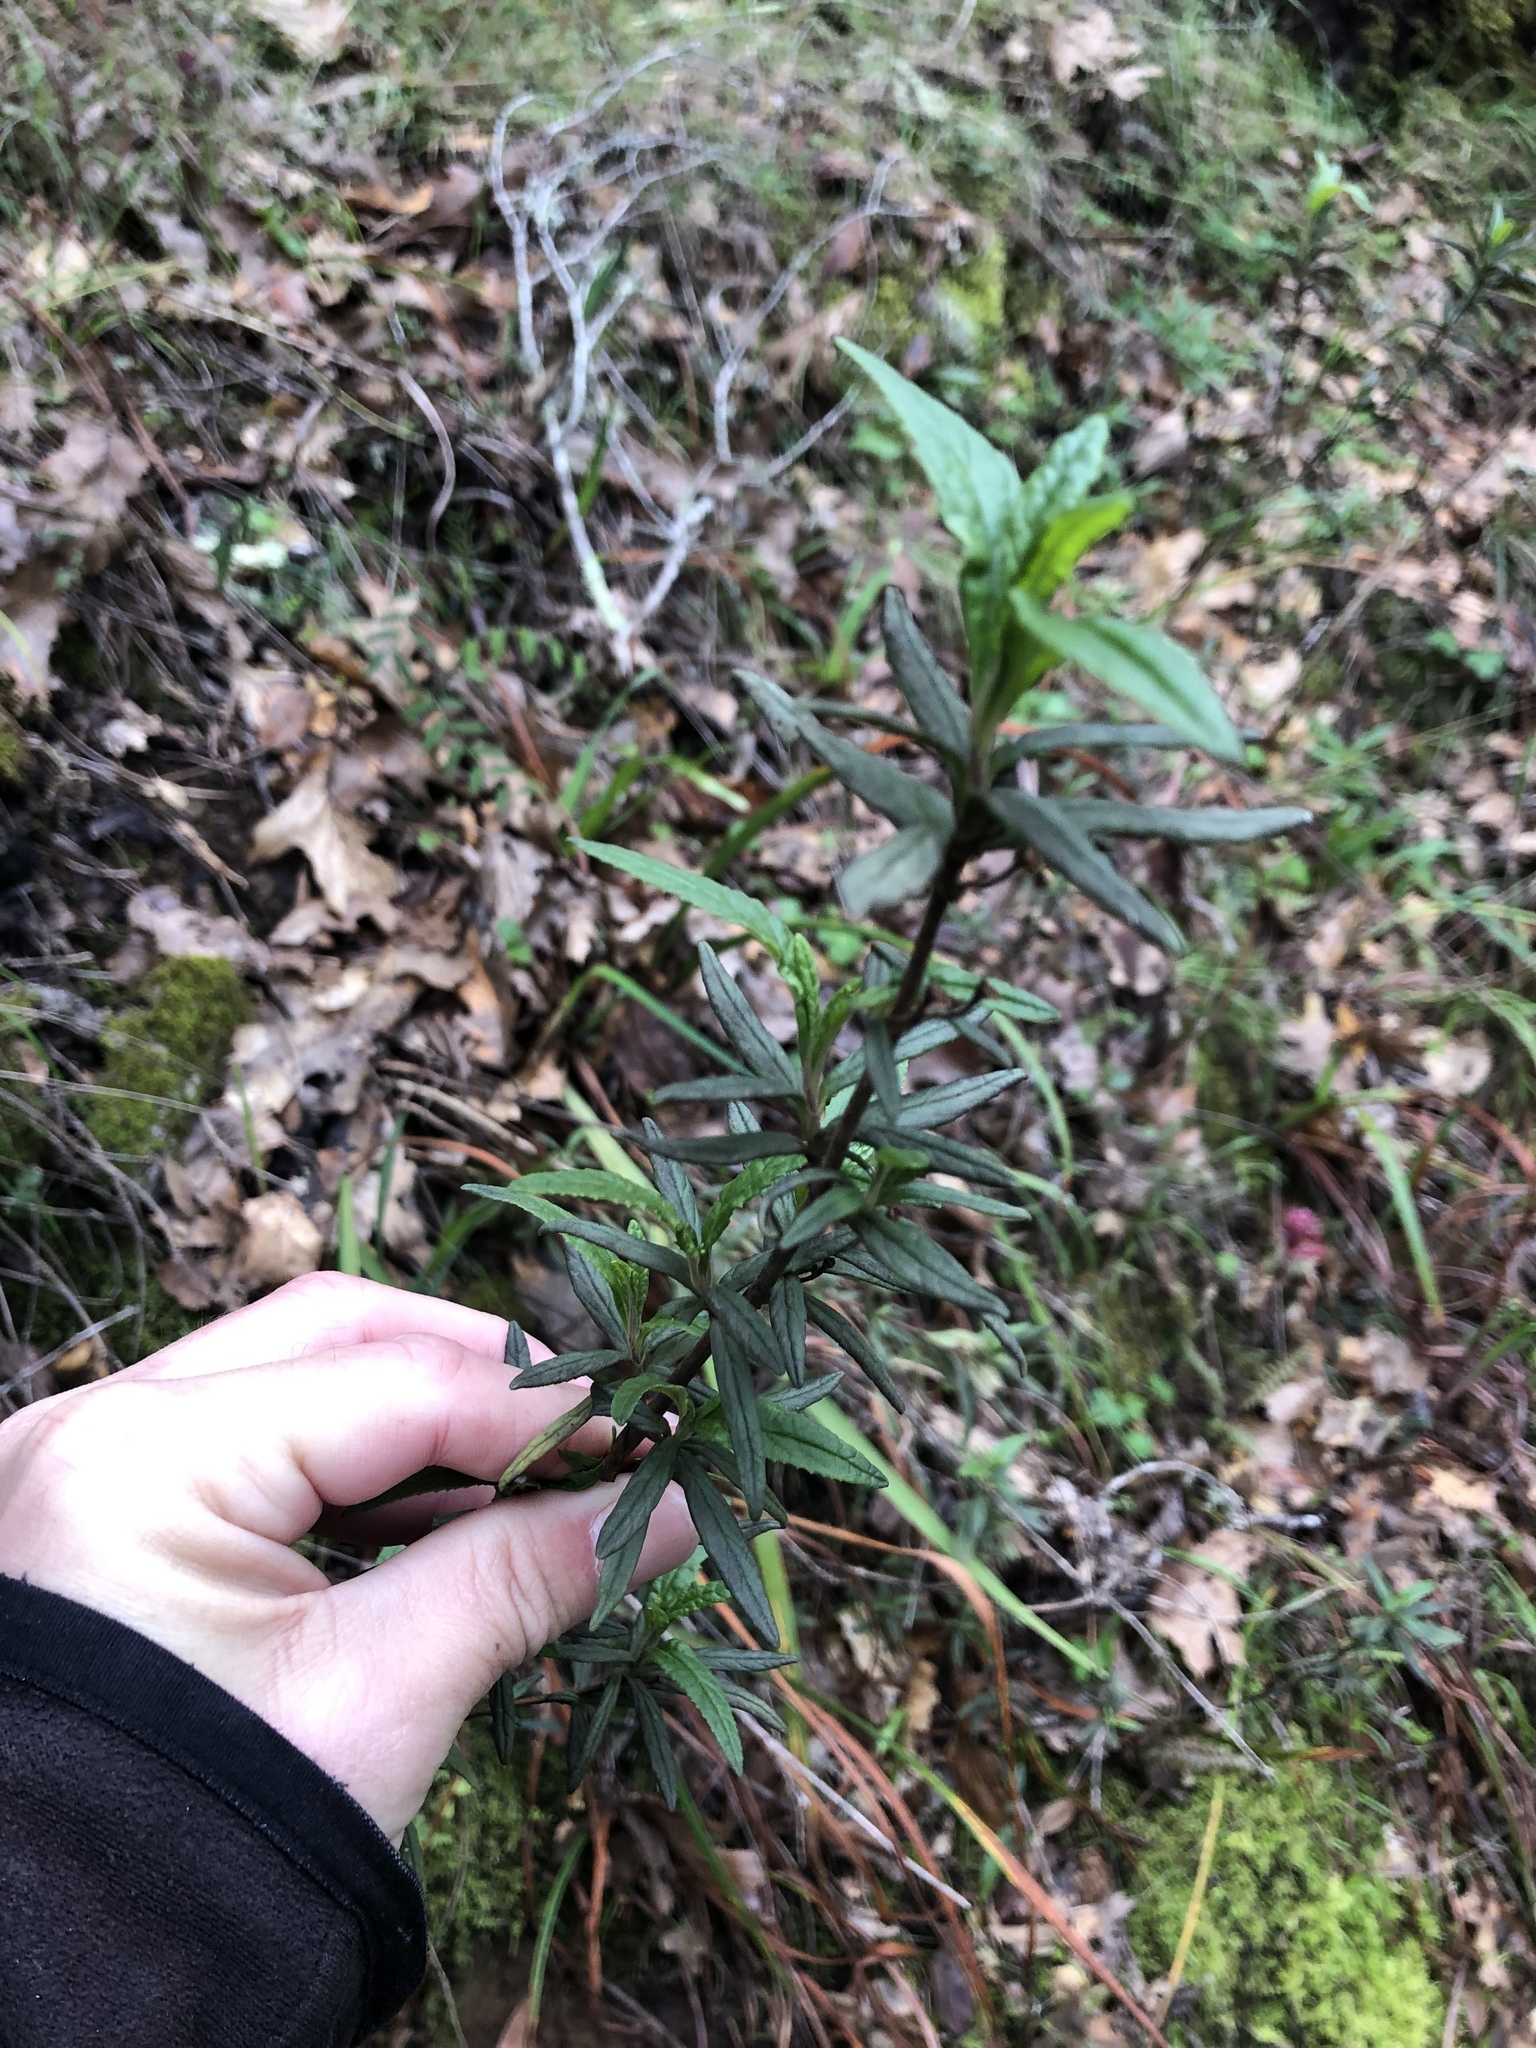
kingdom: Plantae
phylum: Tracheophyta
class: Magnoliopsida
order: Lamiales
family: Phrymaceae
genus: Diplacus
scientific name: Diplacus aurantiacus
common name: Bush monkey-flower
